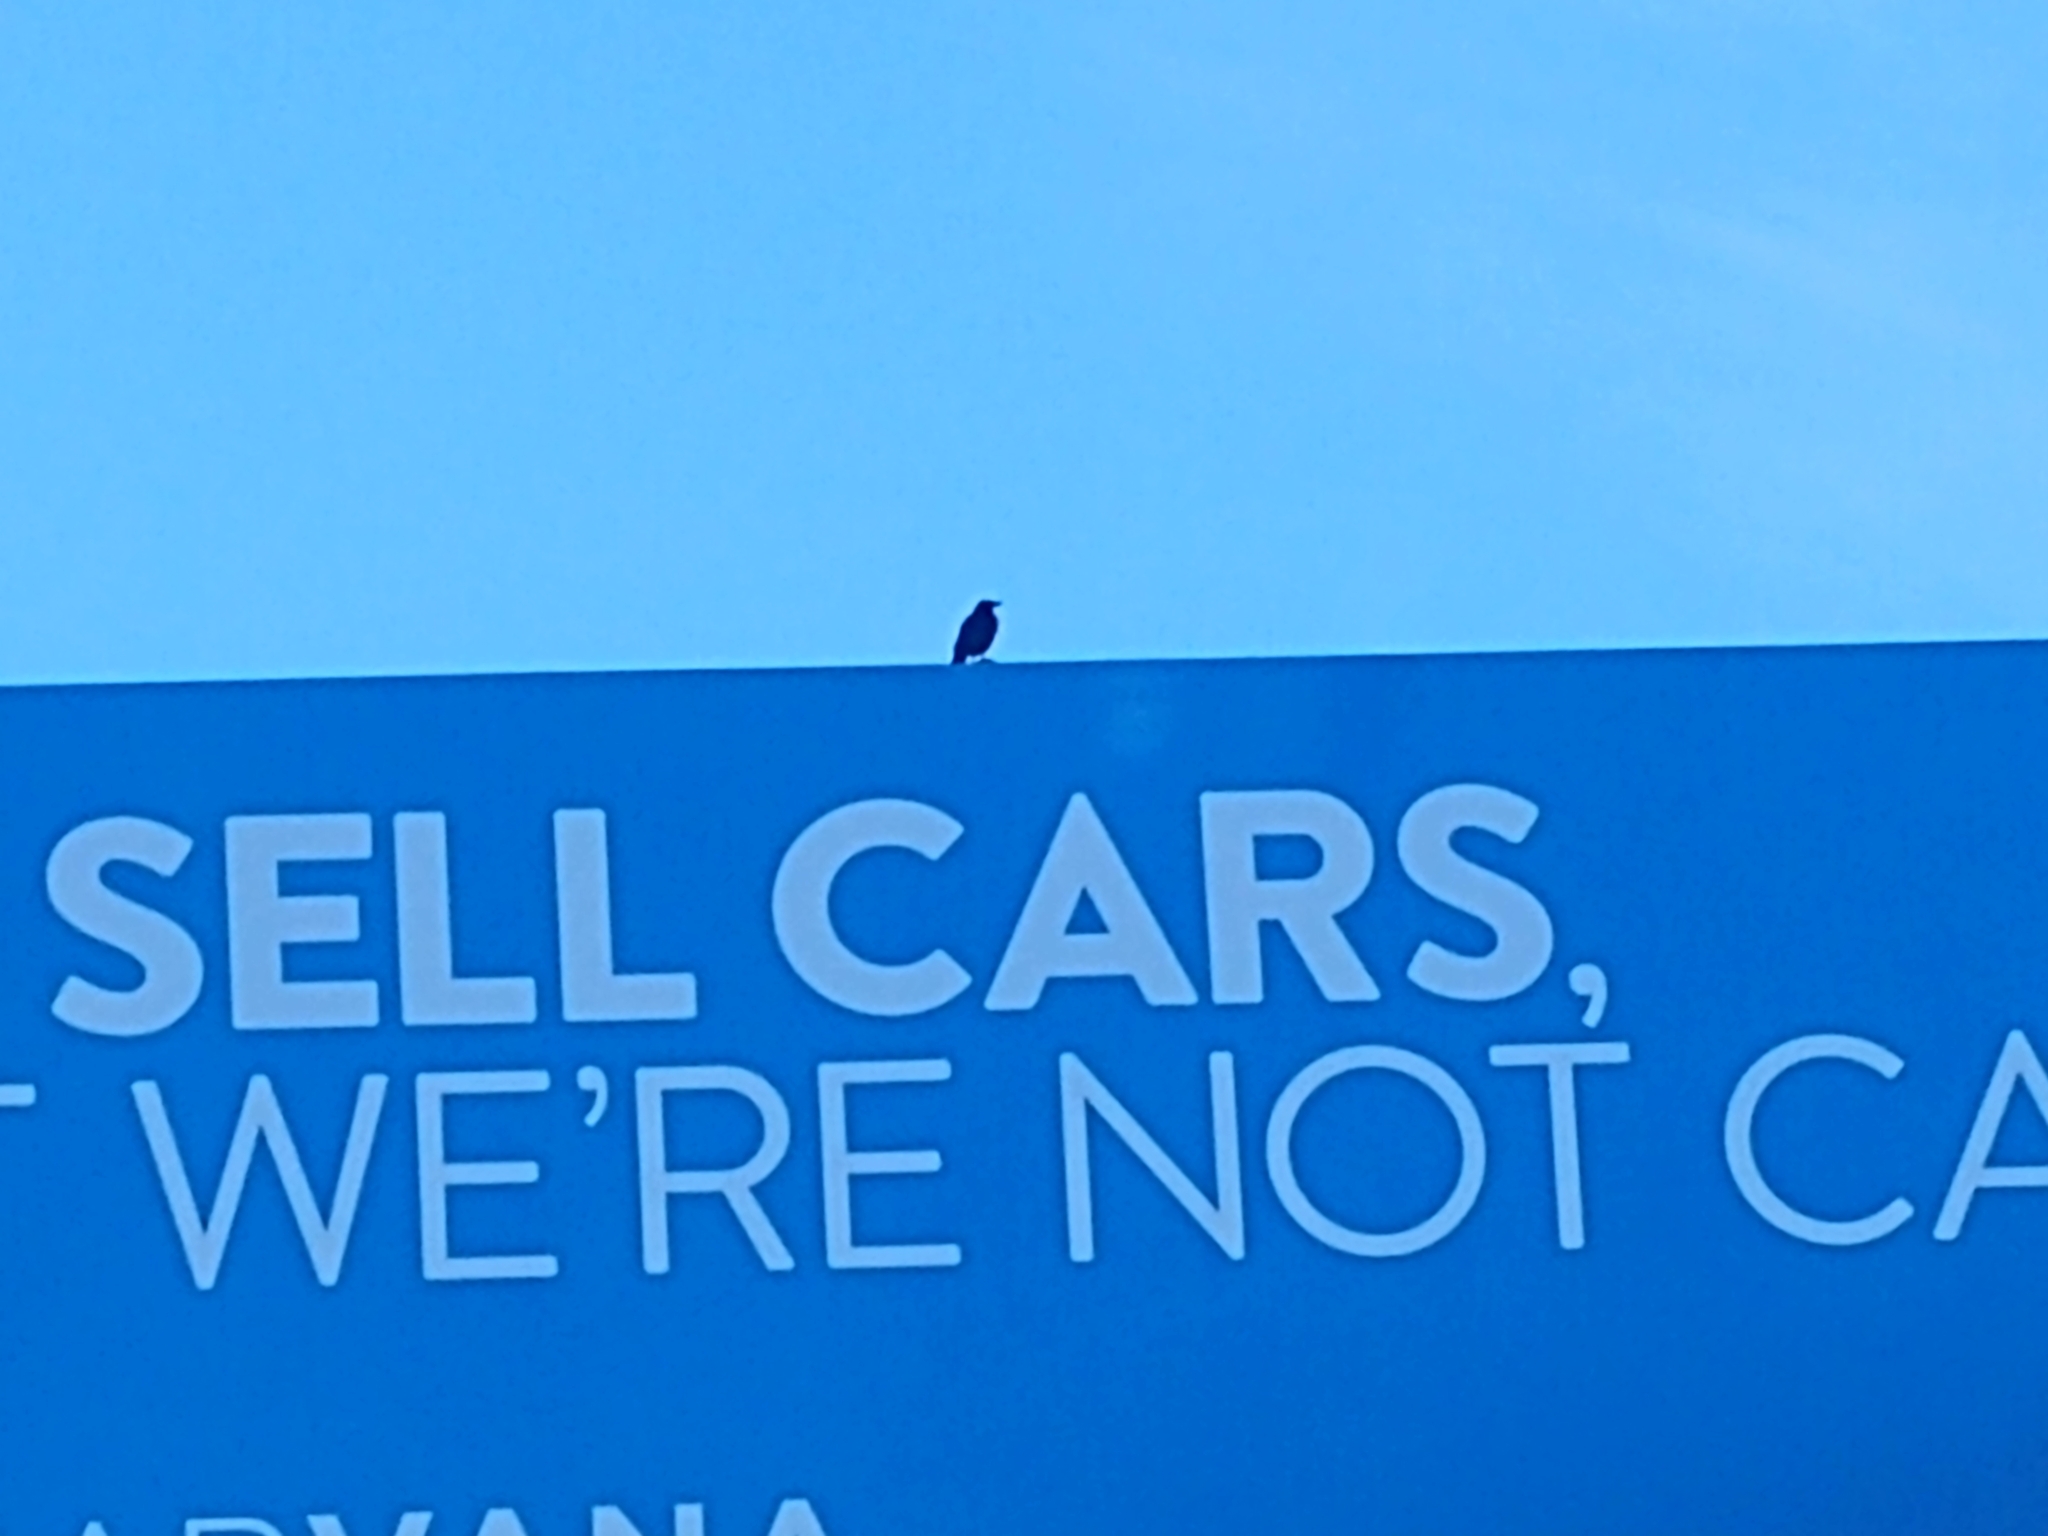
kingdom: Animalia
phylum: Chordata
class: Aves
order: Passeriformes
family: Corvidae
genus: Corvus
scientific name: Corvus ossifragus
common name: Fish crow
